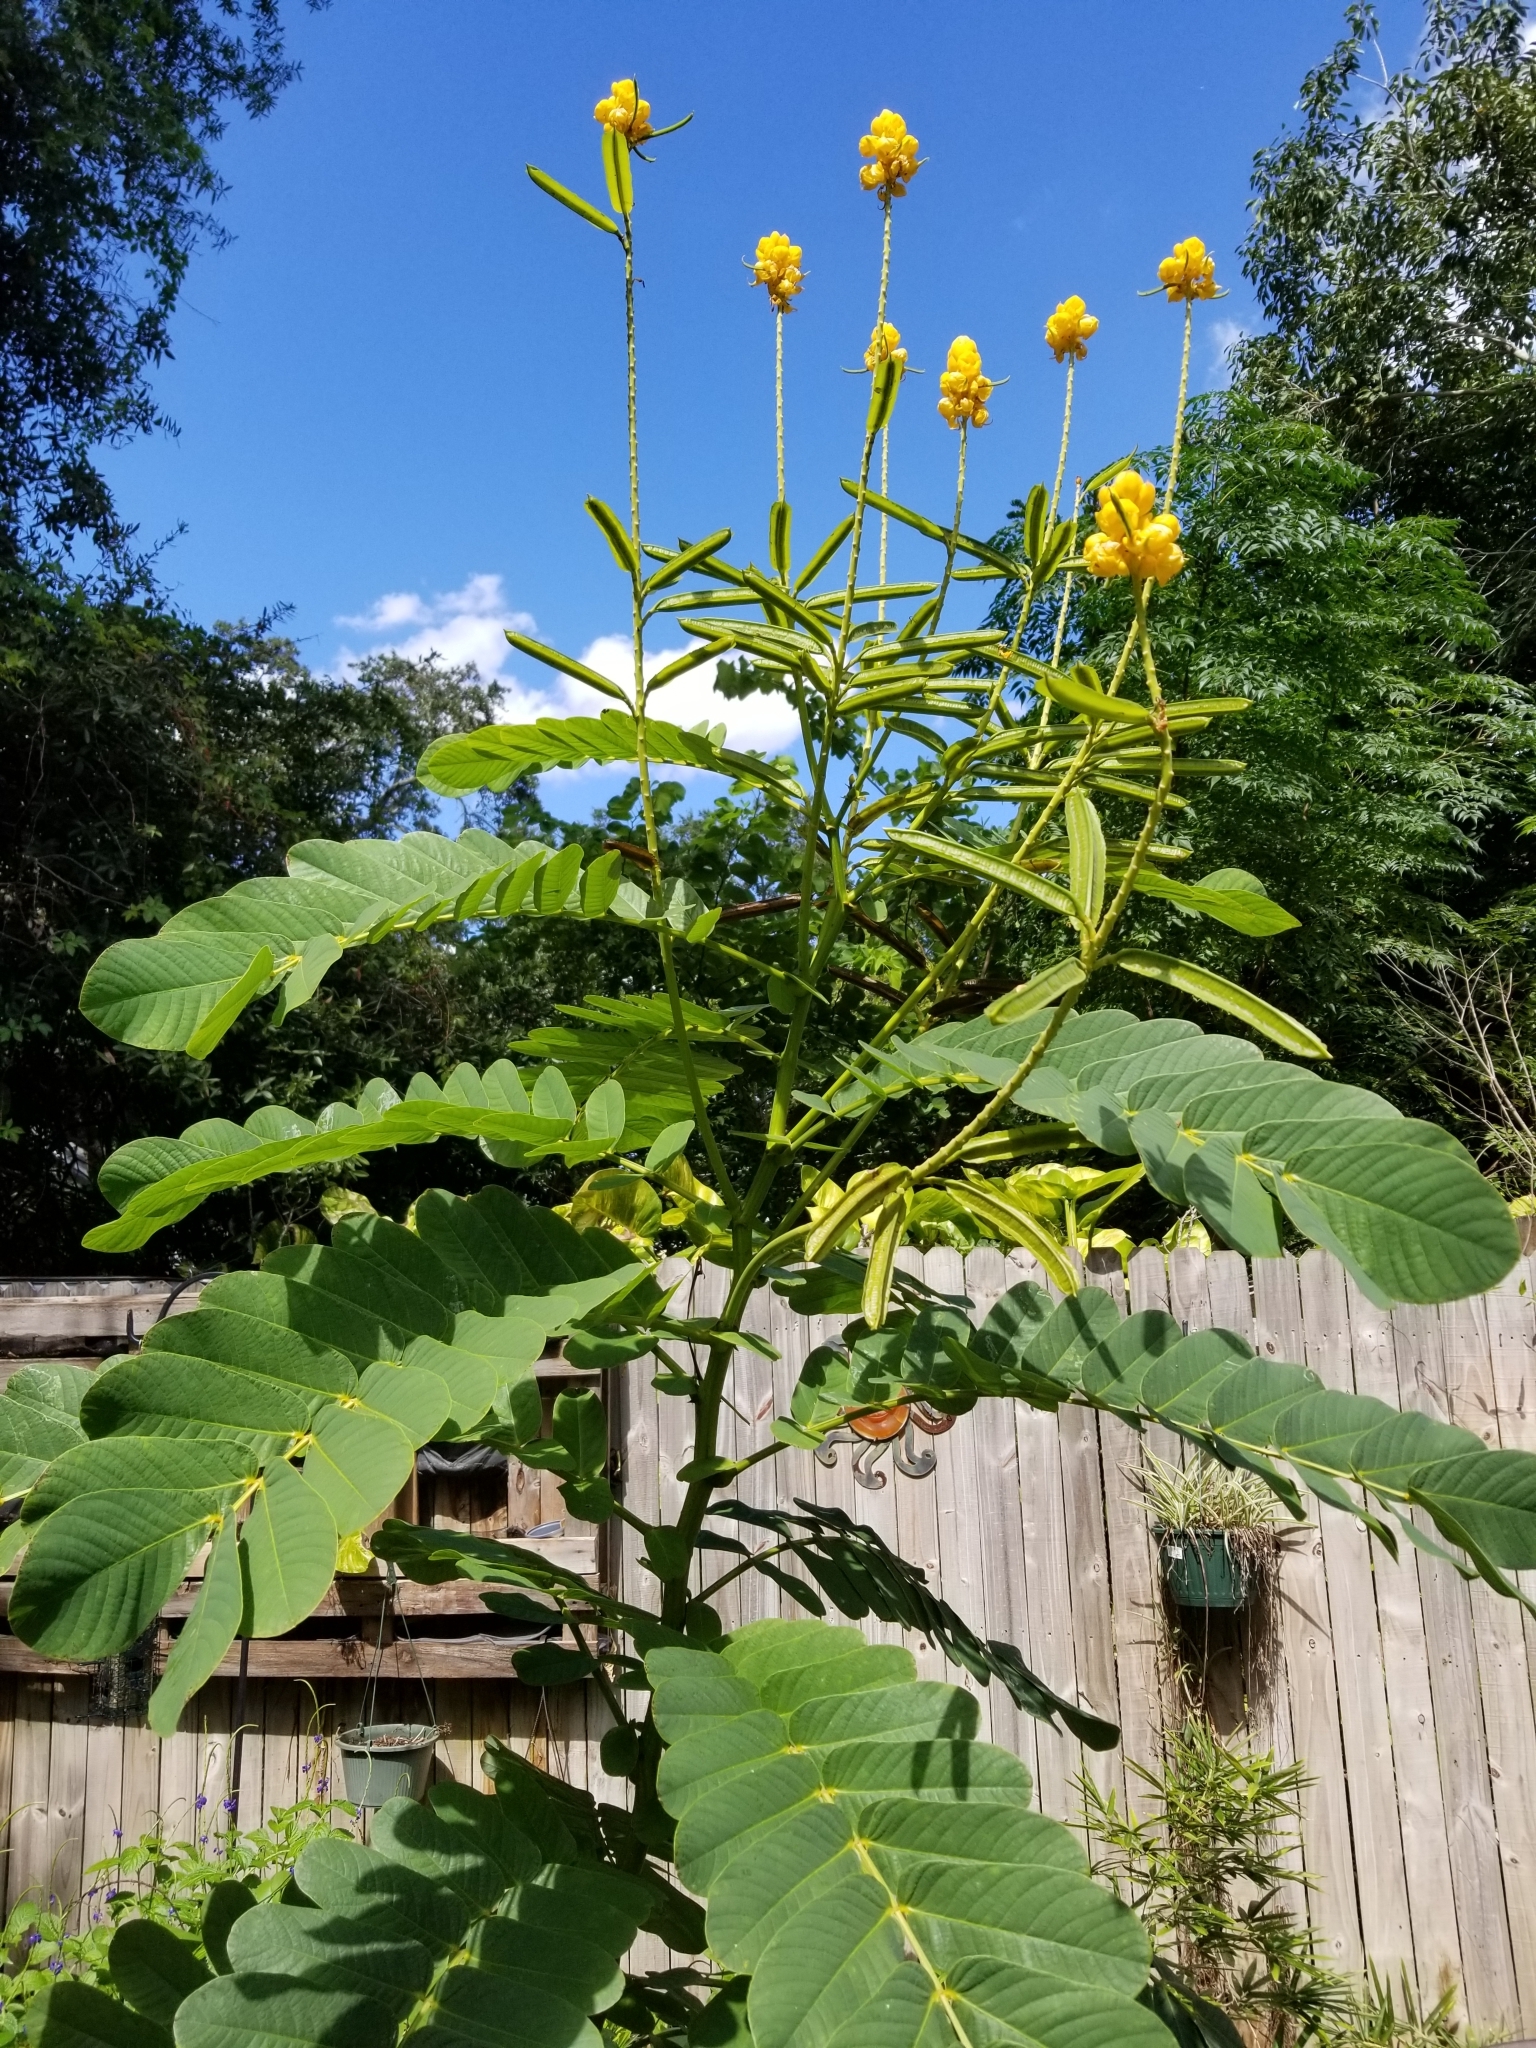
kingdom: Plantae
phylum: Tracheophyta
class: Magnoliopsida
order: Fabales
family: Fabaceae
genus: Senna
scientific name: Senna alata
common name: Emperor's candlesticks
